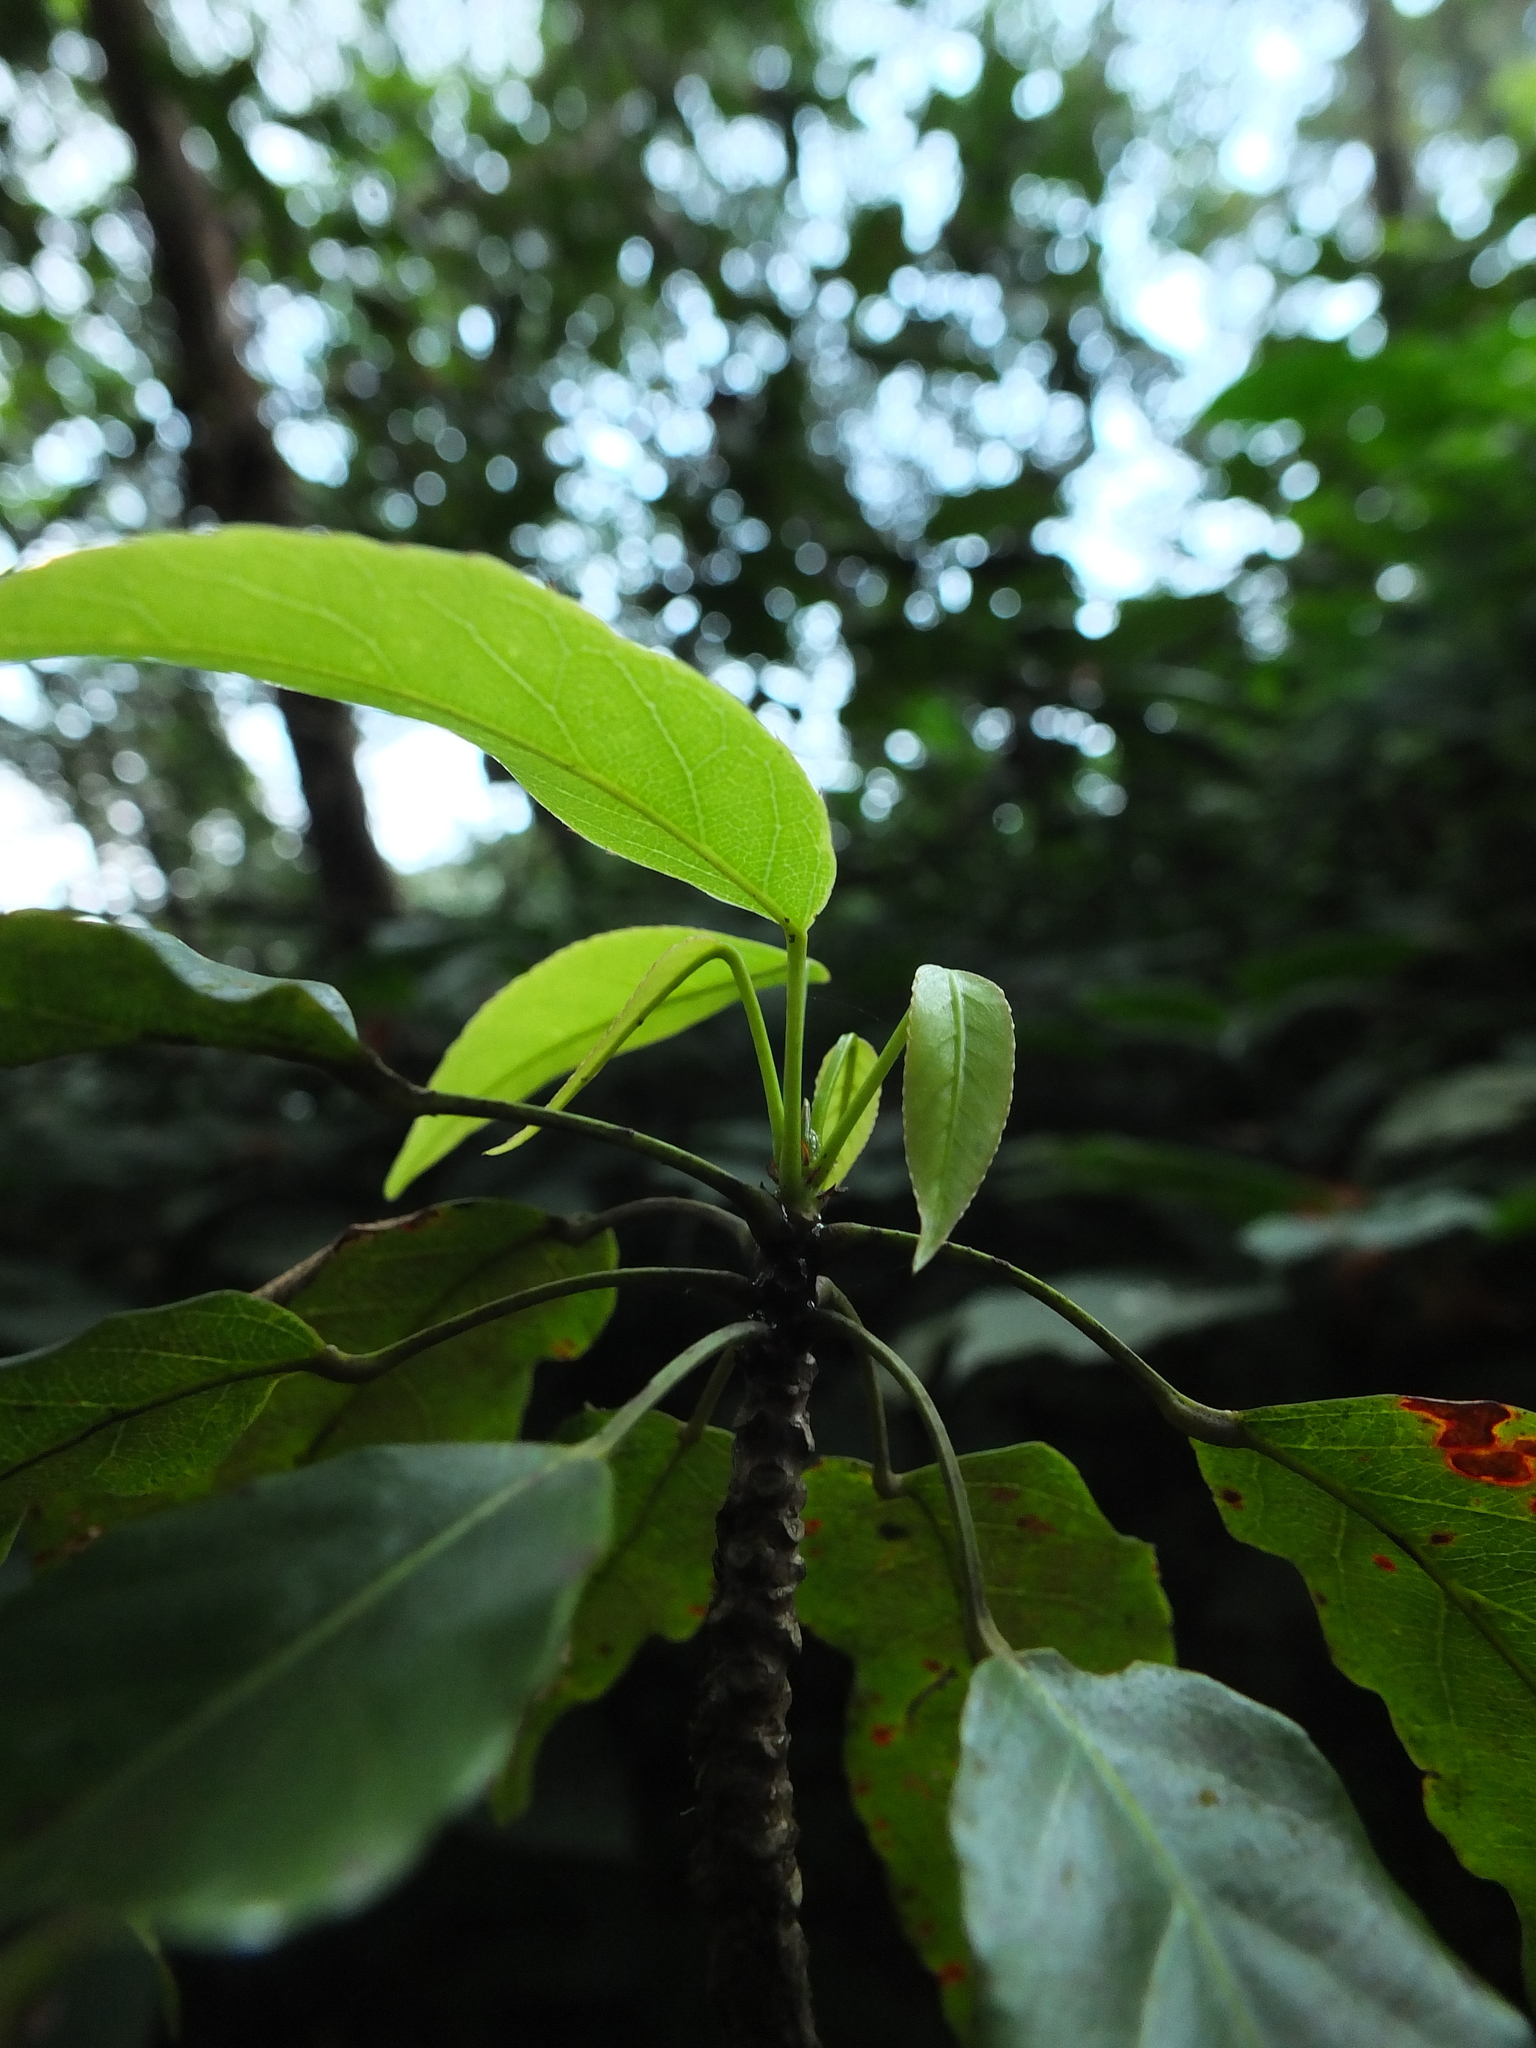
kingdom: Plantae
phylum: Tracheophyta
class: Magnoliopsida
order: Oxalidales
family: Elaeocarpaceae
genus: Elaeocarpus
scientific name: Elaeocarpus munroii
